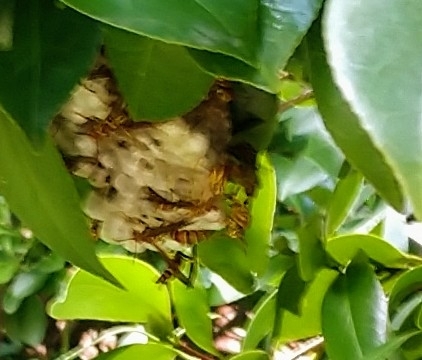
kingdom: Animalia
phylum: Arthropoda
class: Insecta
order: Hymenoptera
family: Eumenidae
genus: Polistes
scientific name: Polistes exclamans
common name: Paper wasp
